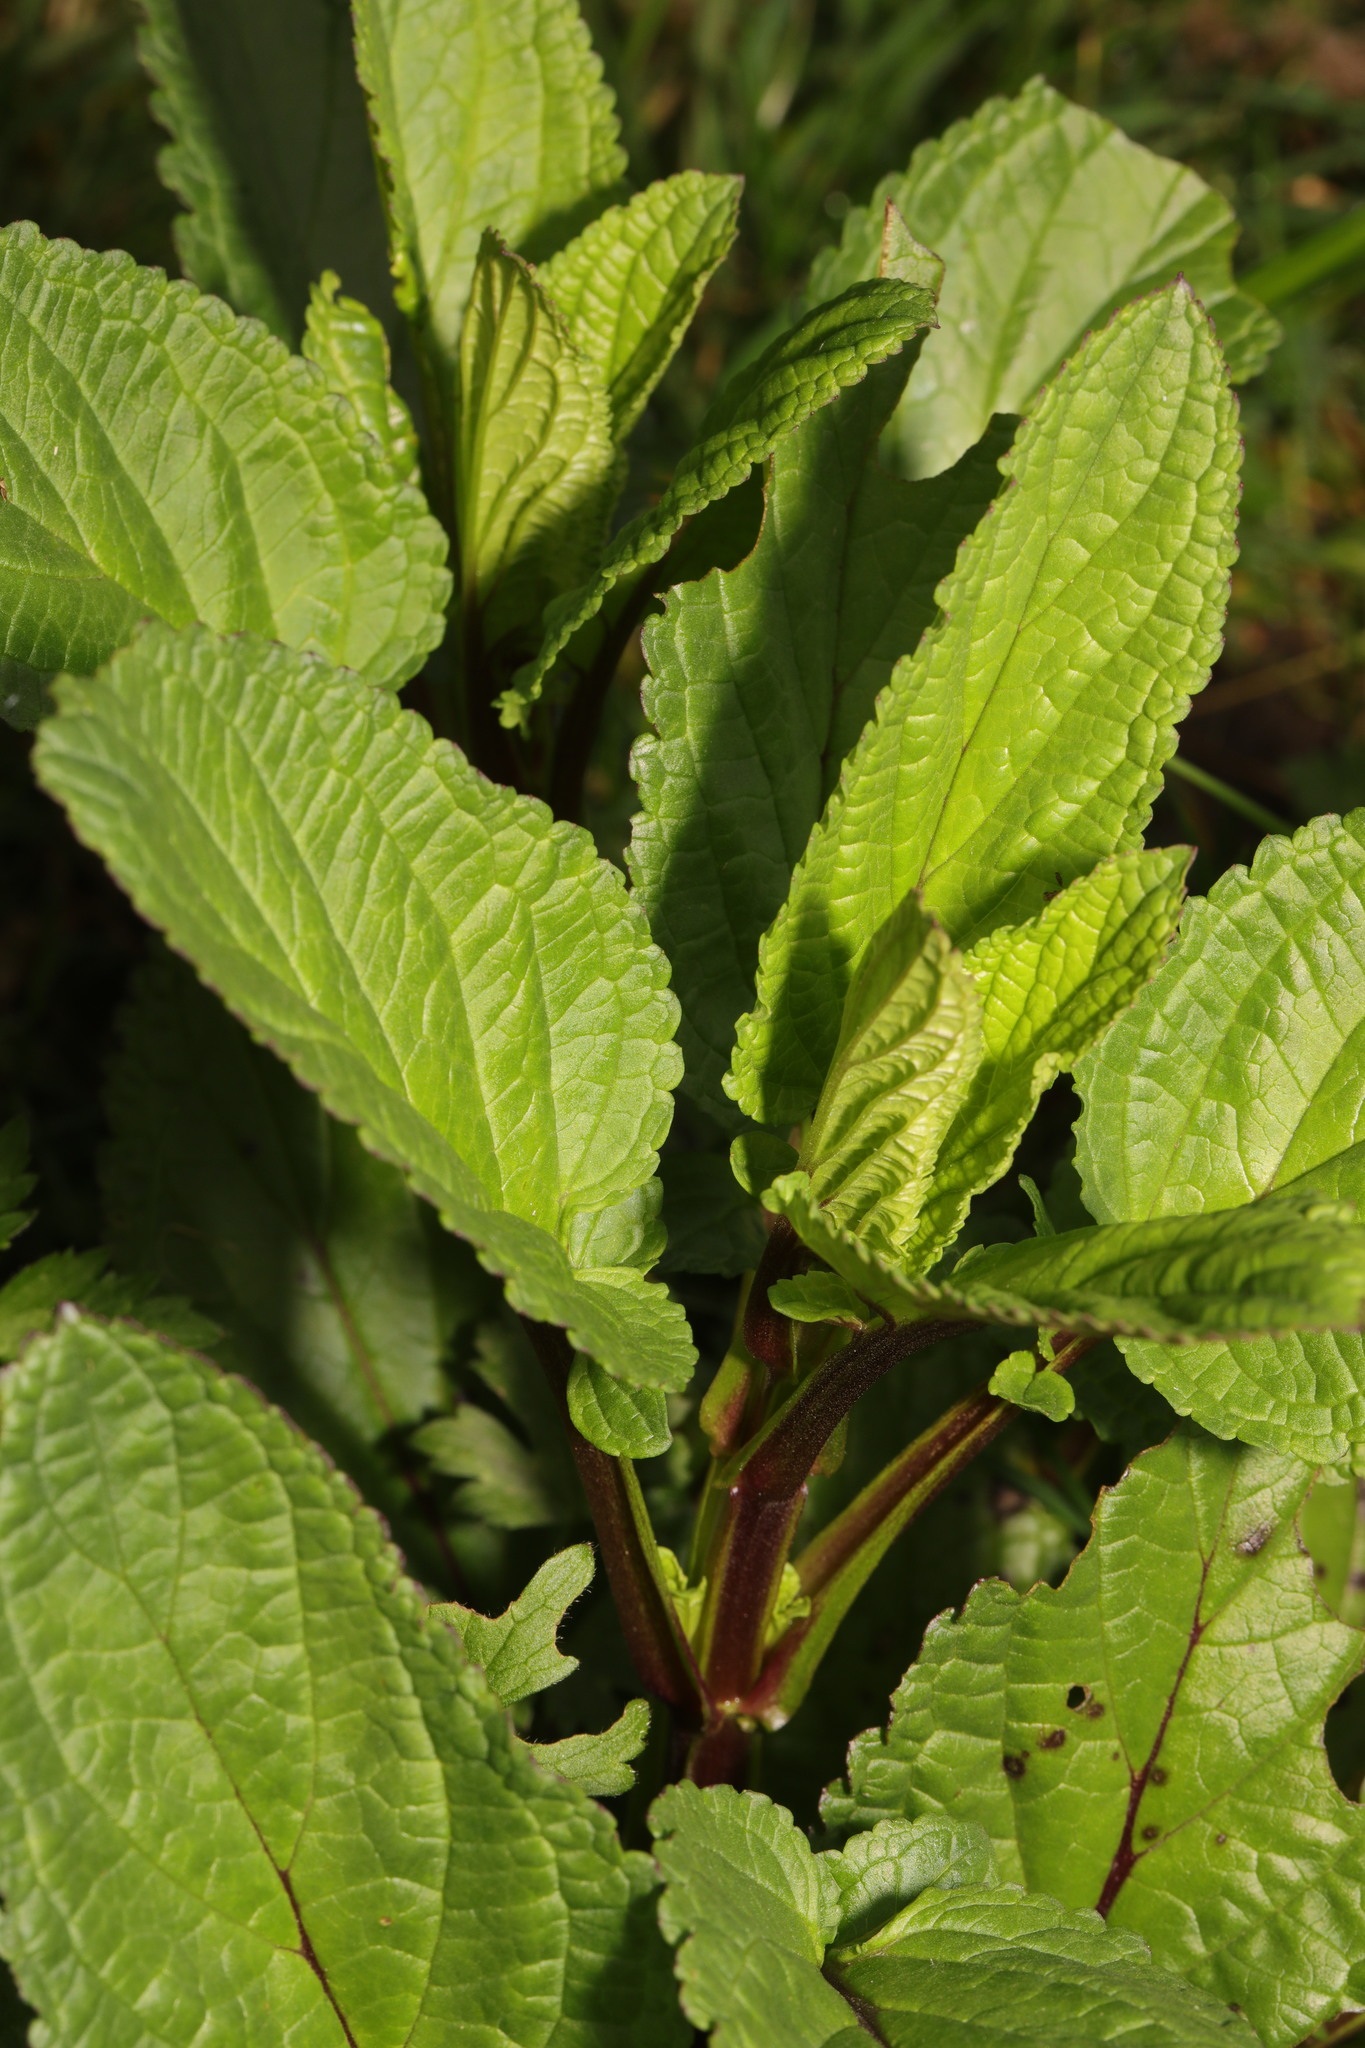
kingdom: Plantae
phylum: Tracheophyta
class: Magnoliopsida
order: Lamiales
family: Scrophulariaceae
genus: Scrophularia
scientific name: Scrophularia auriculata
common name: Water betony
